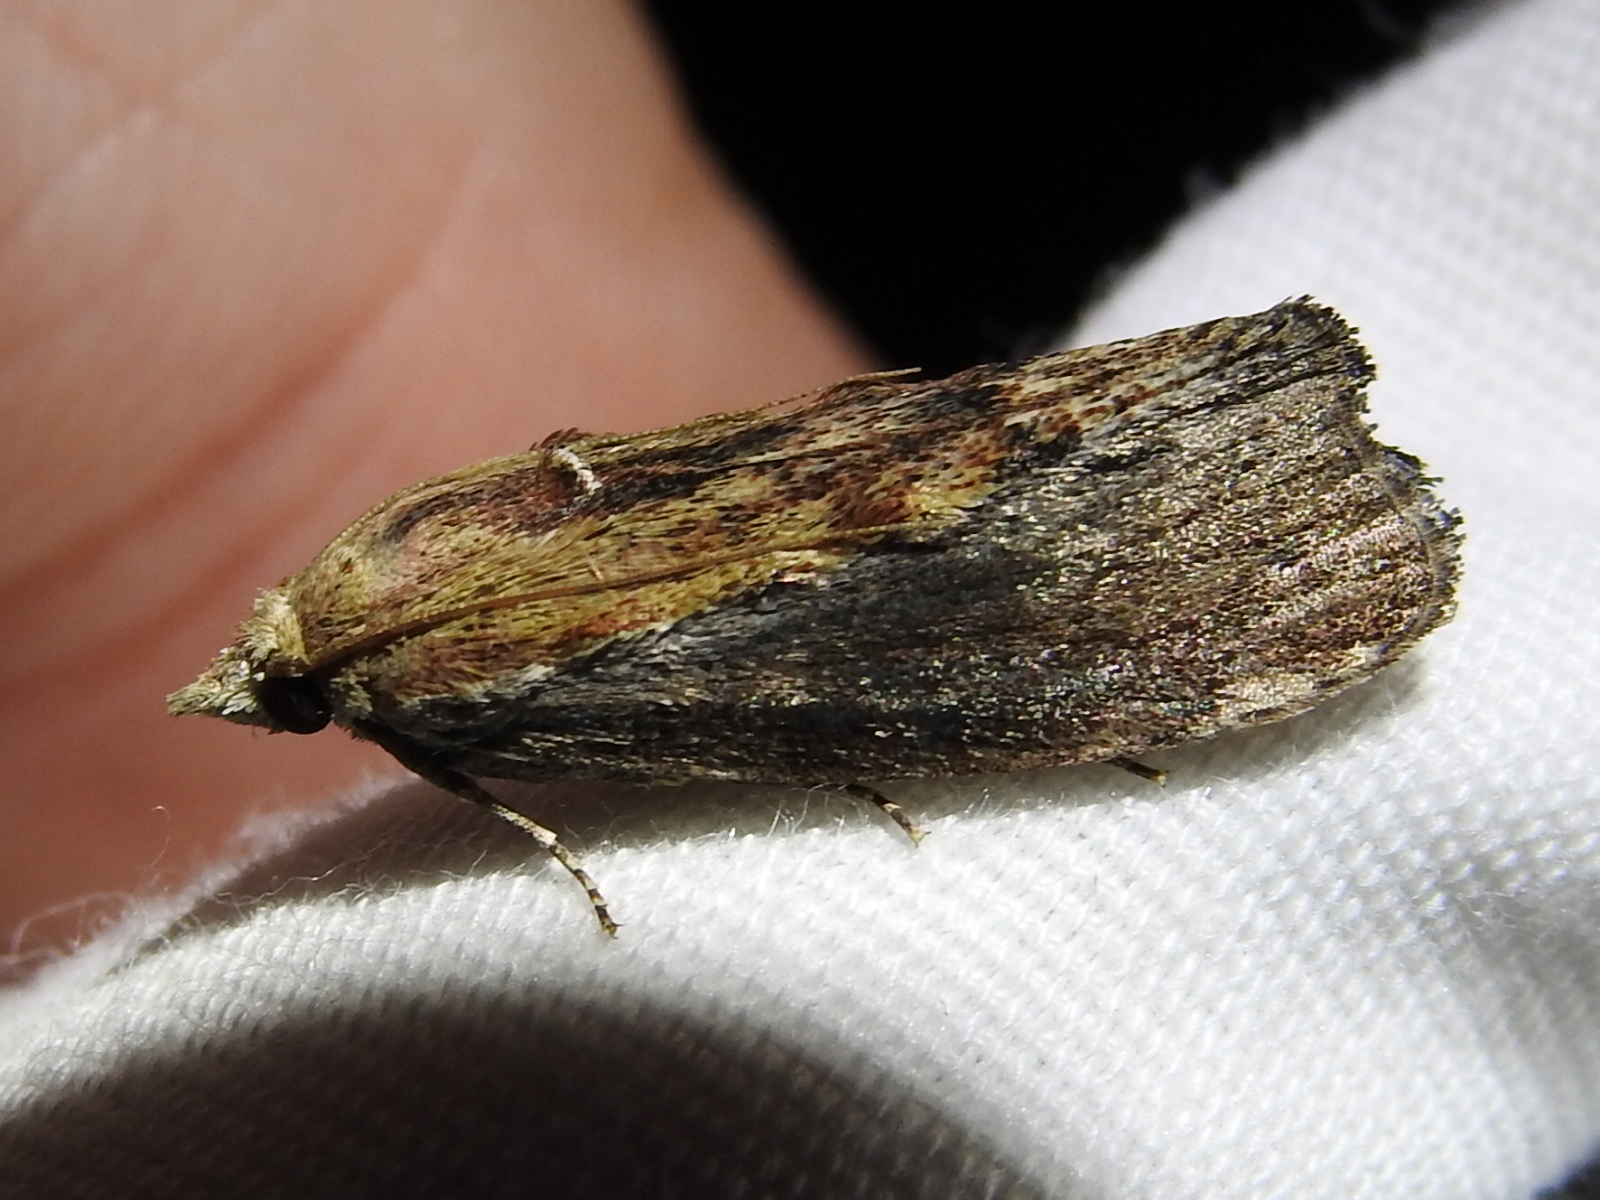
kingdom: Animalia
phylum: Arthropoda
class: Insecta
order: Lepidoptera
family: Pyralidae
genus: Galleria
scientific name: Galleria mellonella
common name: Greater wax moth
